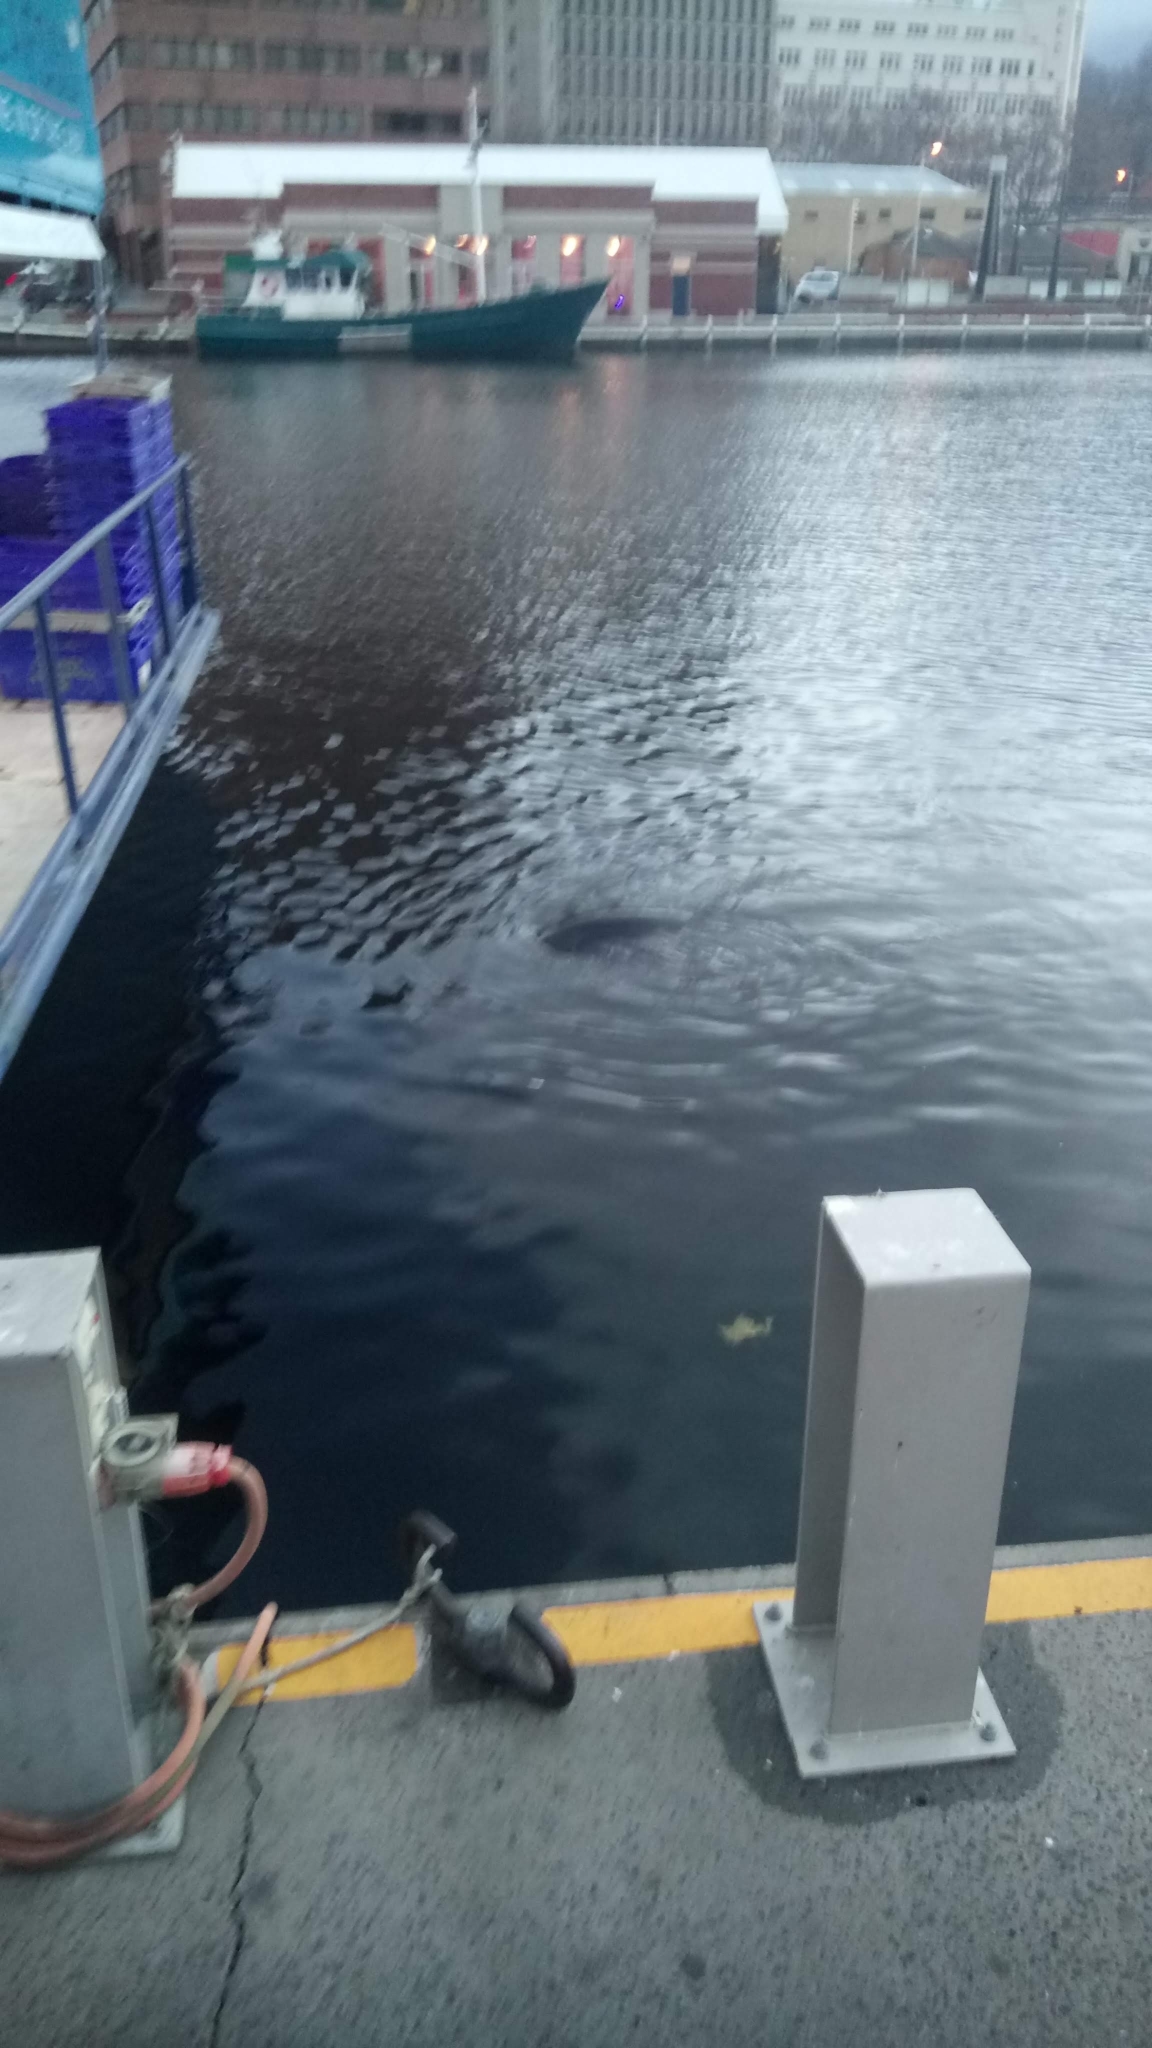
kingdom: Animalia
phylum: Chordata
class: Mammalia
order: Carnivora
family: Otariidae
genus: Arctocephalus
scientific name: Arctocephalus pusillus
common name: Brown fur seal
